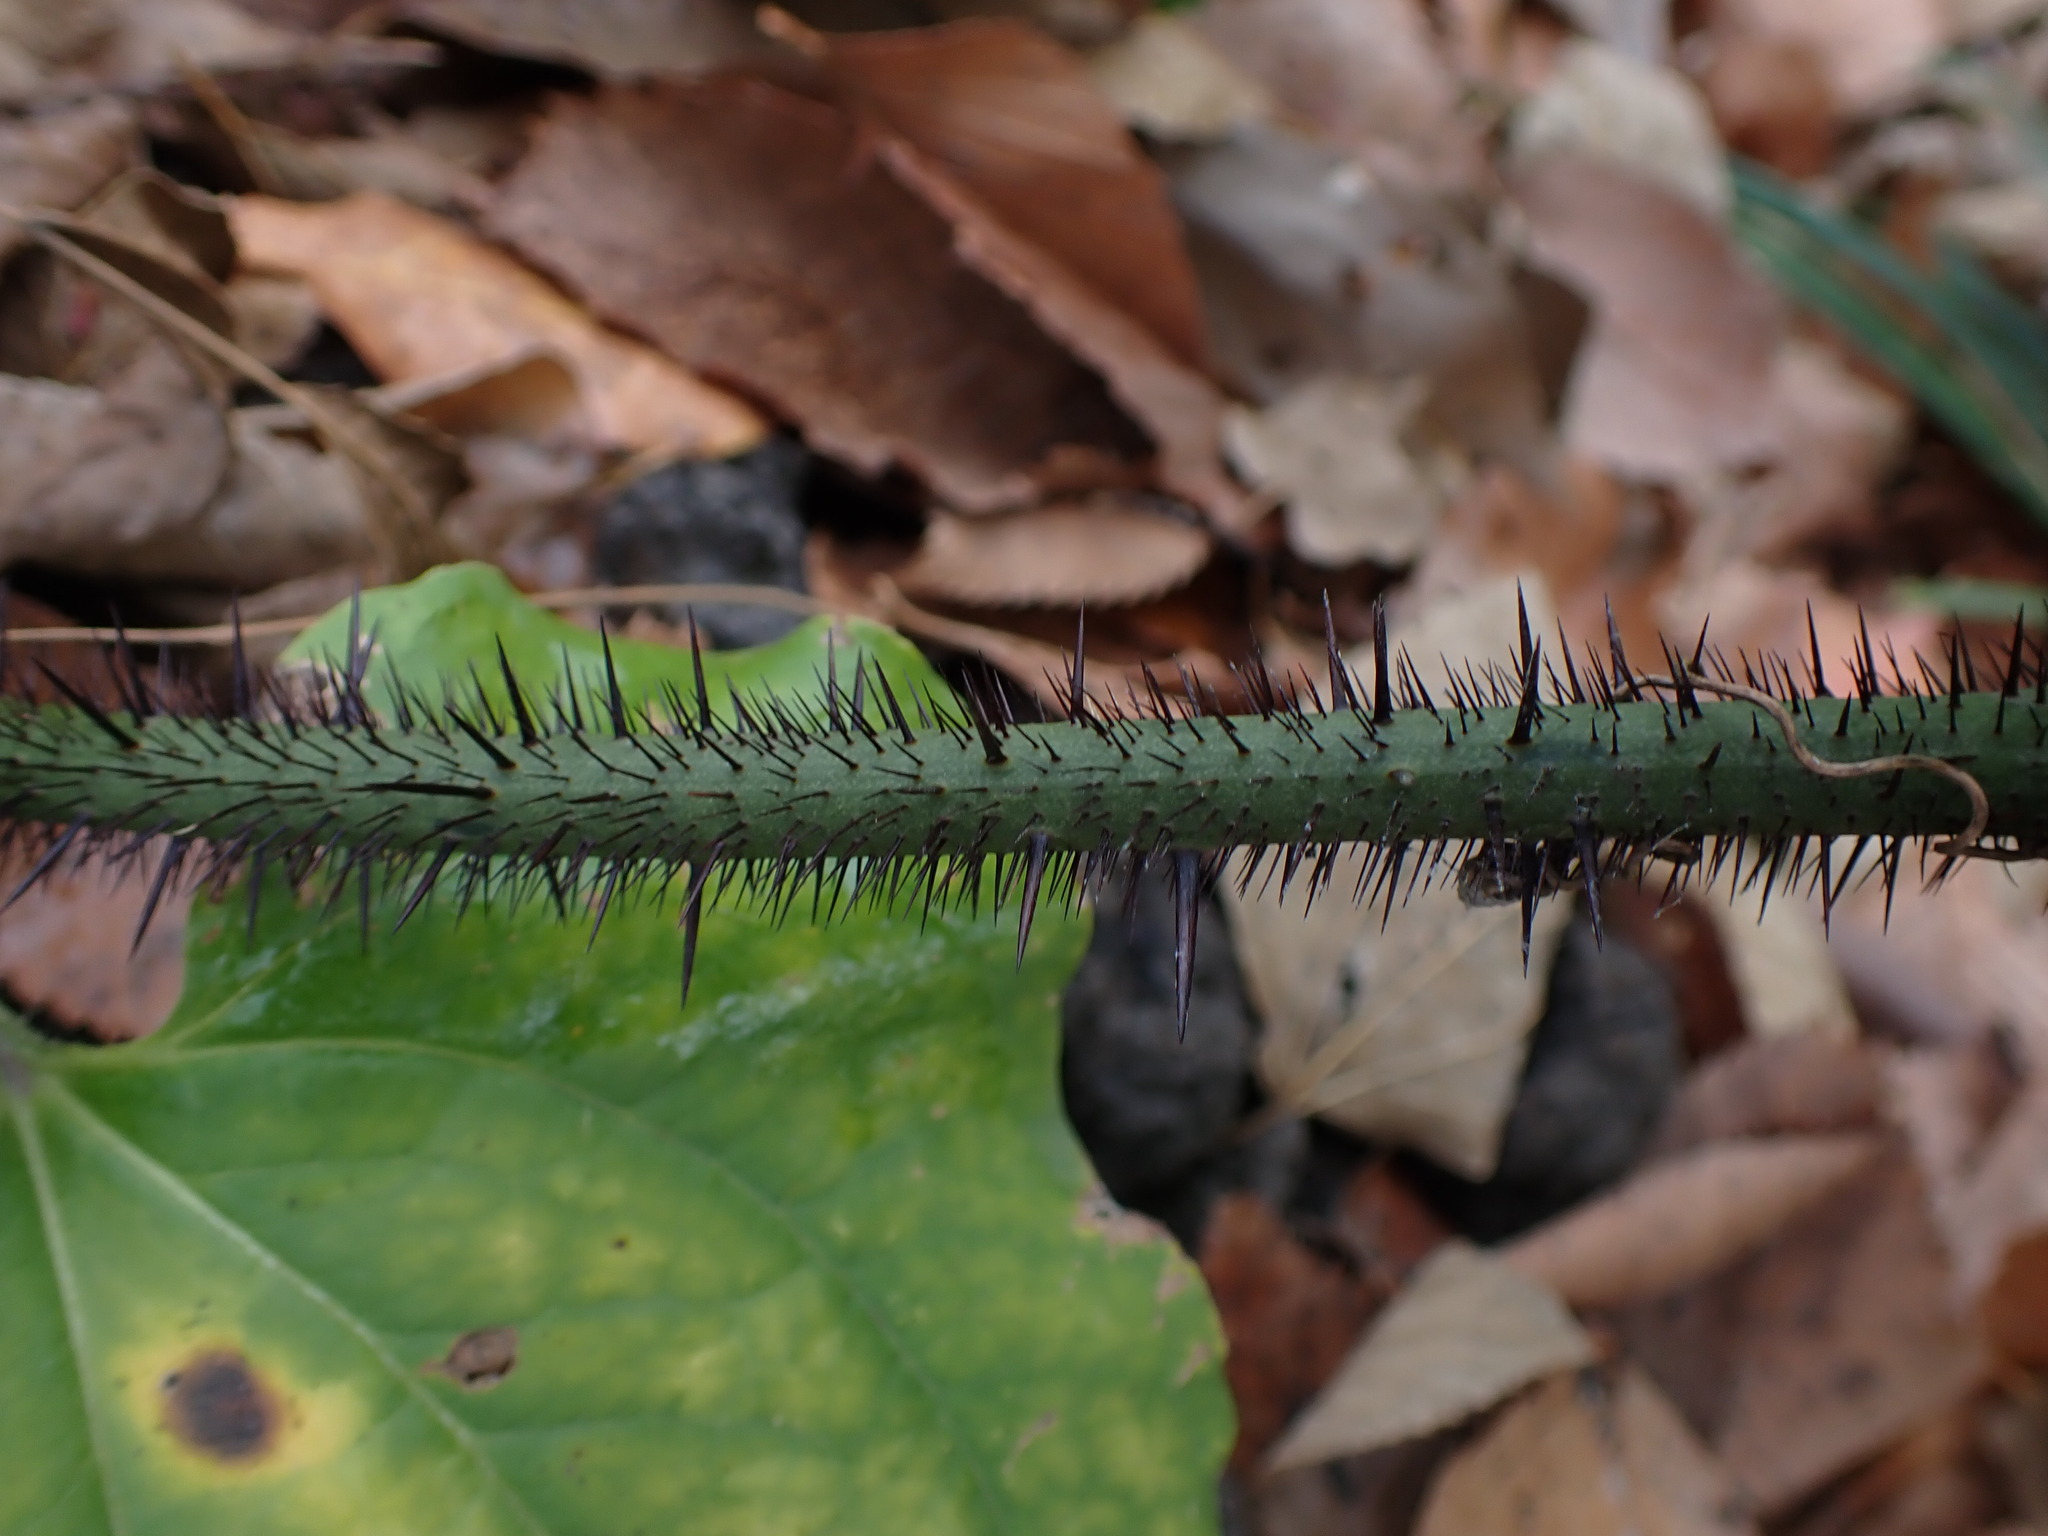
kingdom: Plantae
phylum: Tracheophyta
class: Liliopsida
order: Liliales
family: Smilacaceae
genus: Smilax
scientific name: Smilax tamnoides
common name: Hellfetter
